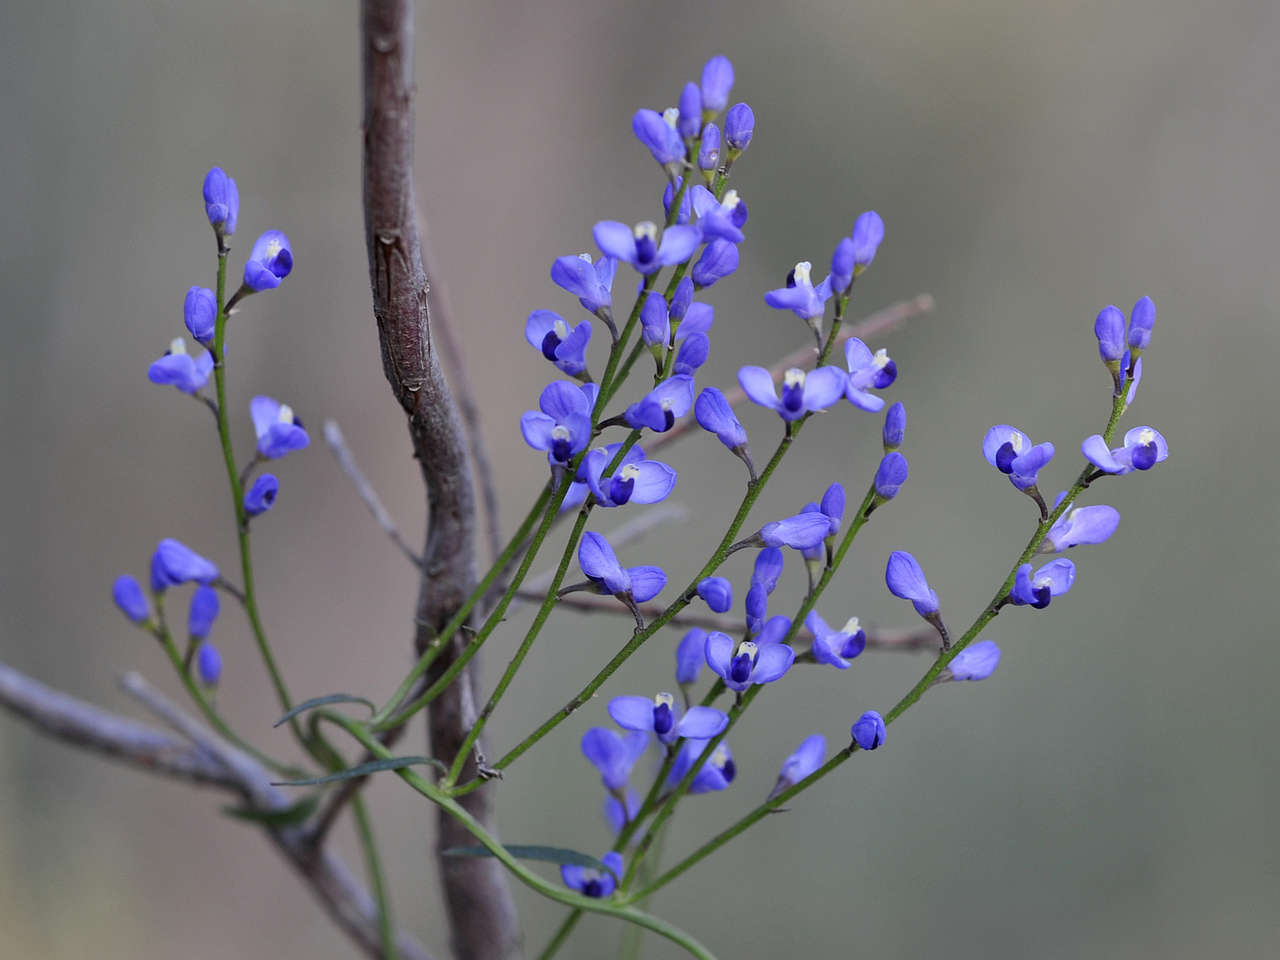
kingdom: Plantae
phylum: Tracheophyta
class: Magnoliopsida
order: Fabales
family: Polygalaceae
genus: Comesperma
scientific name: Comesperma volubile
